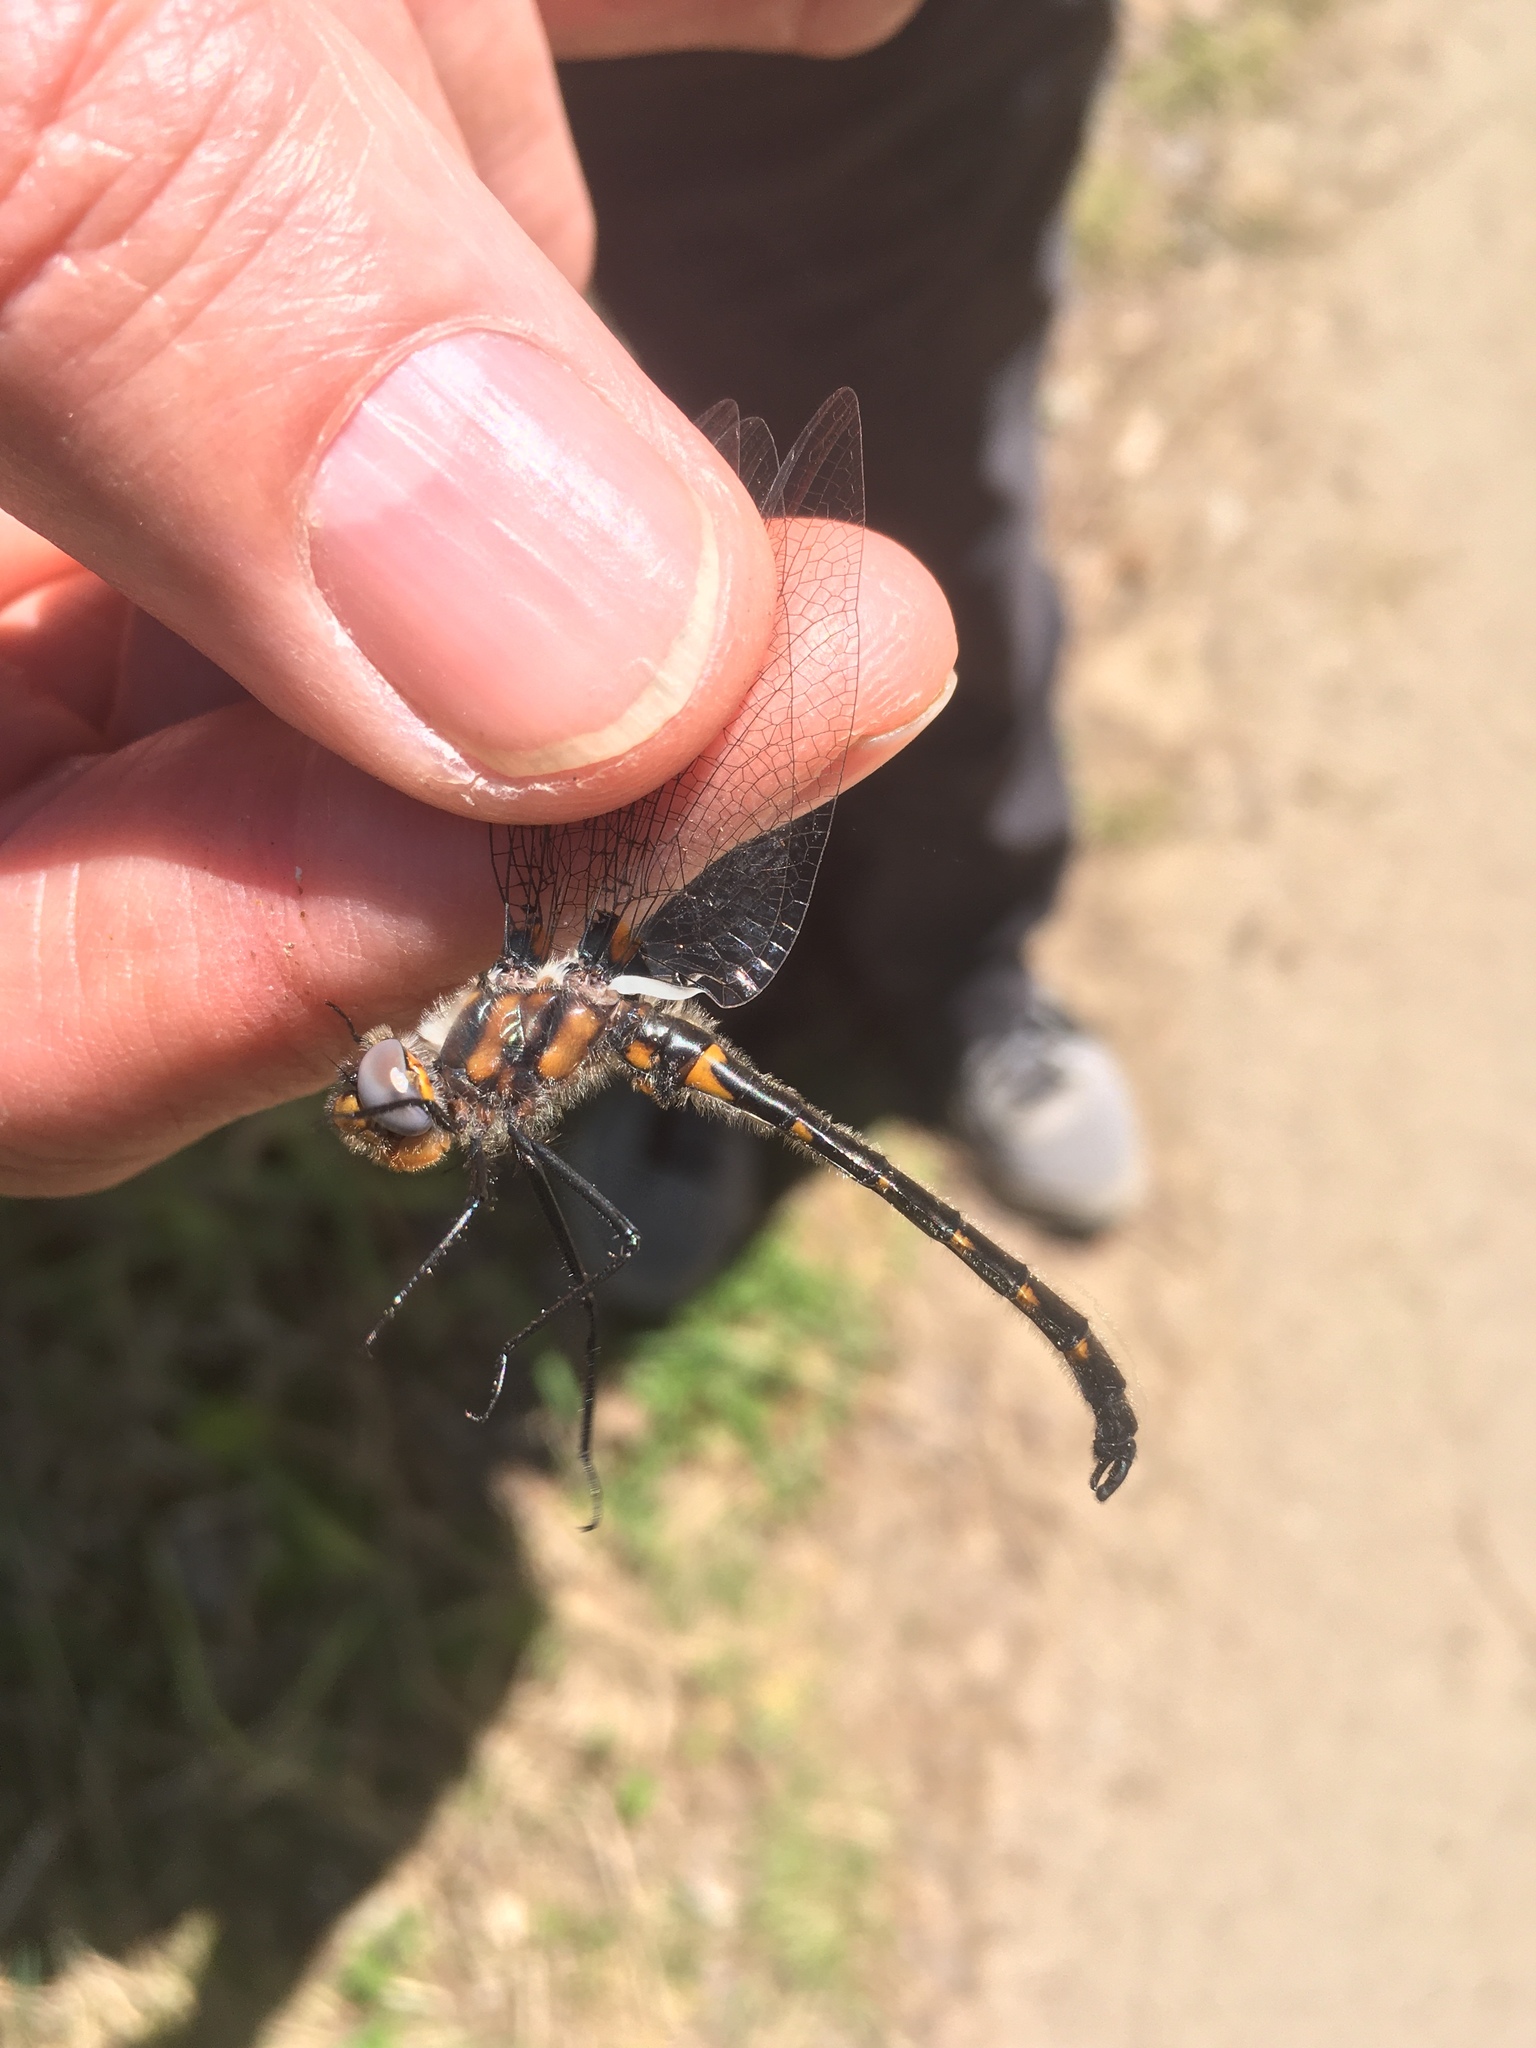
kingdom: Animalia
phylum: Arthropoda
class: Insecta
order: Odonata
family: Corduliidae
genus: Helocordulia
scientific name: Helocordulia uhleri
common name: Uhler's sundragon
